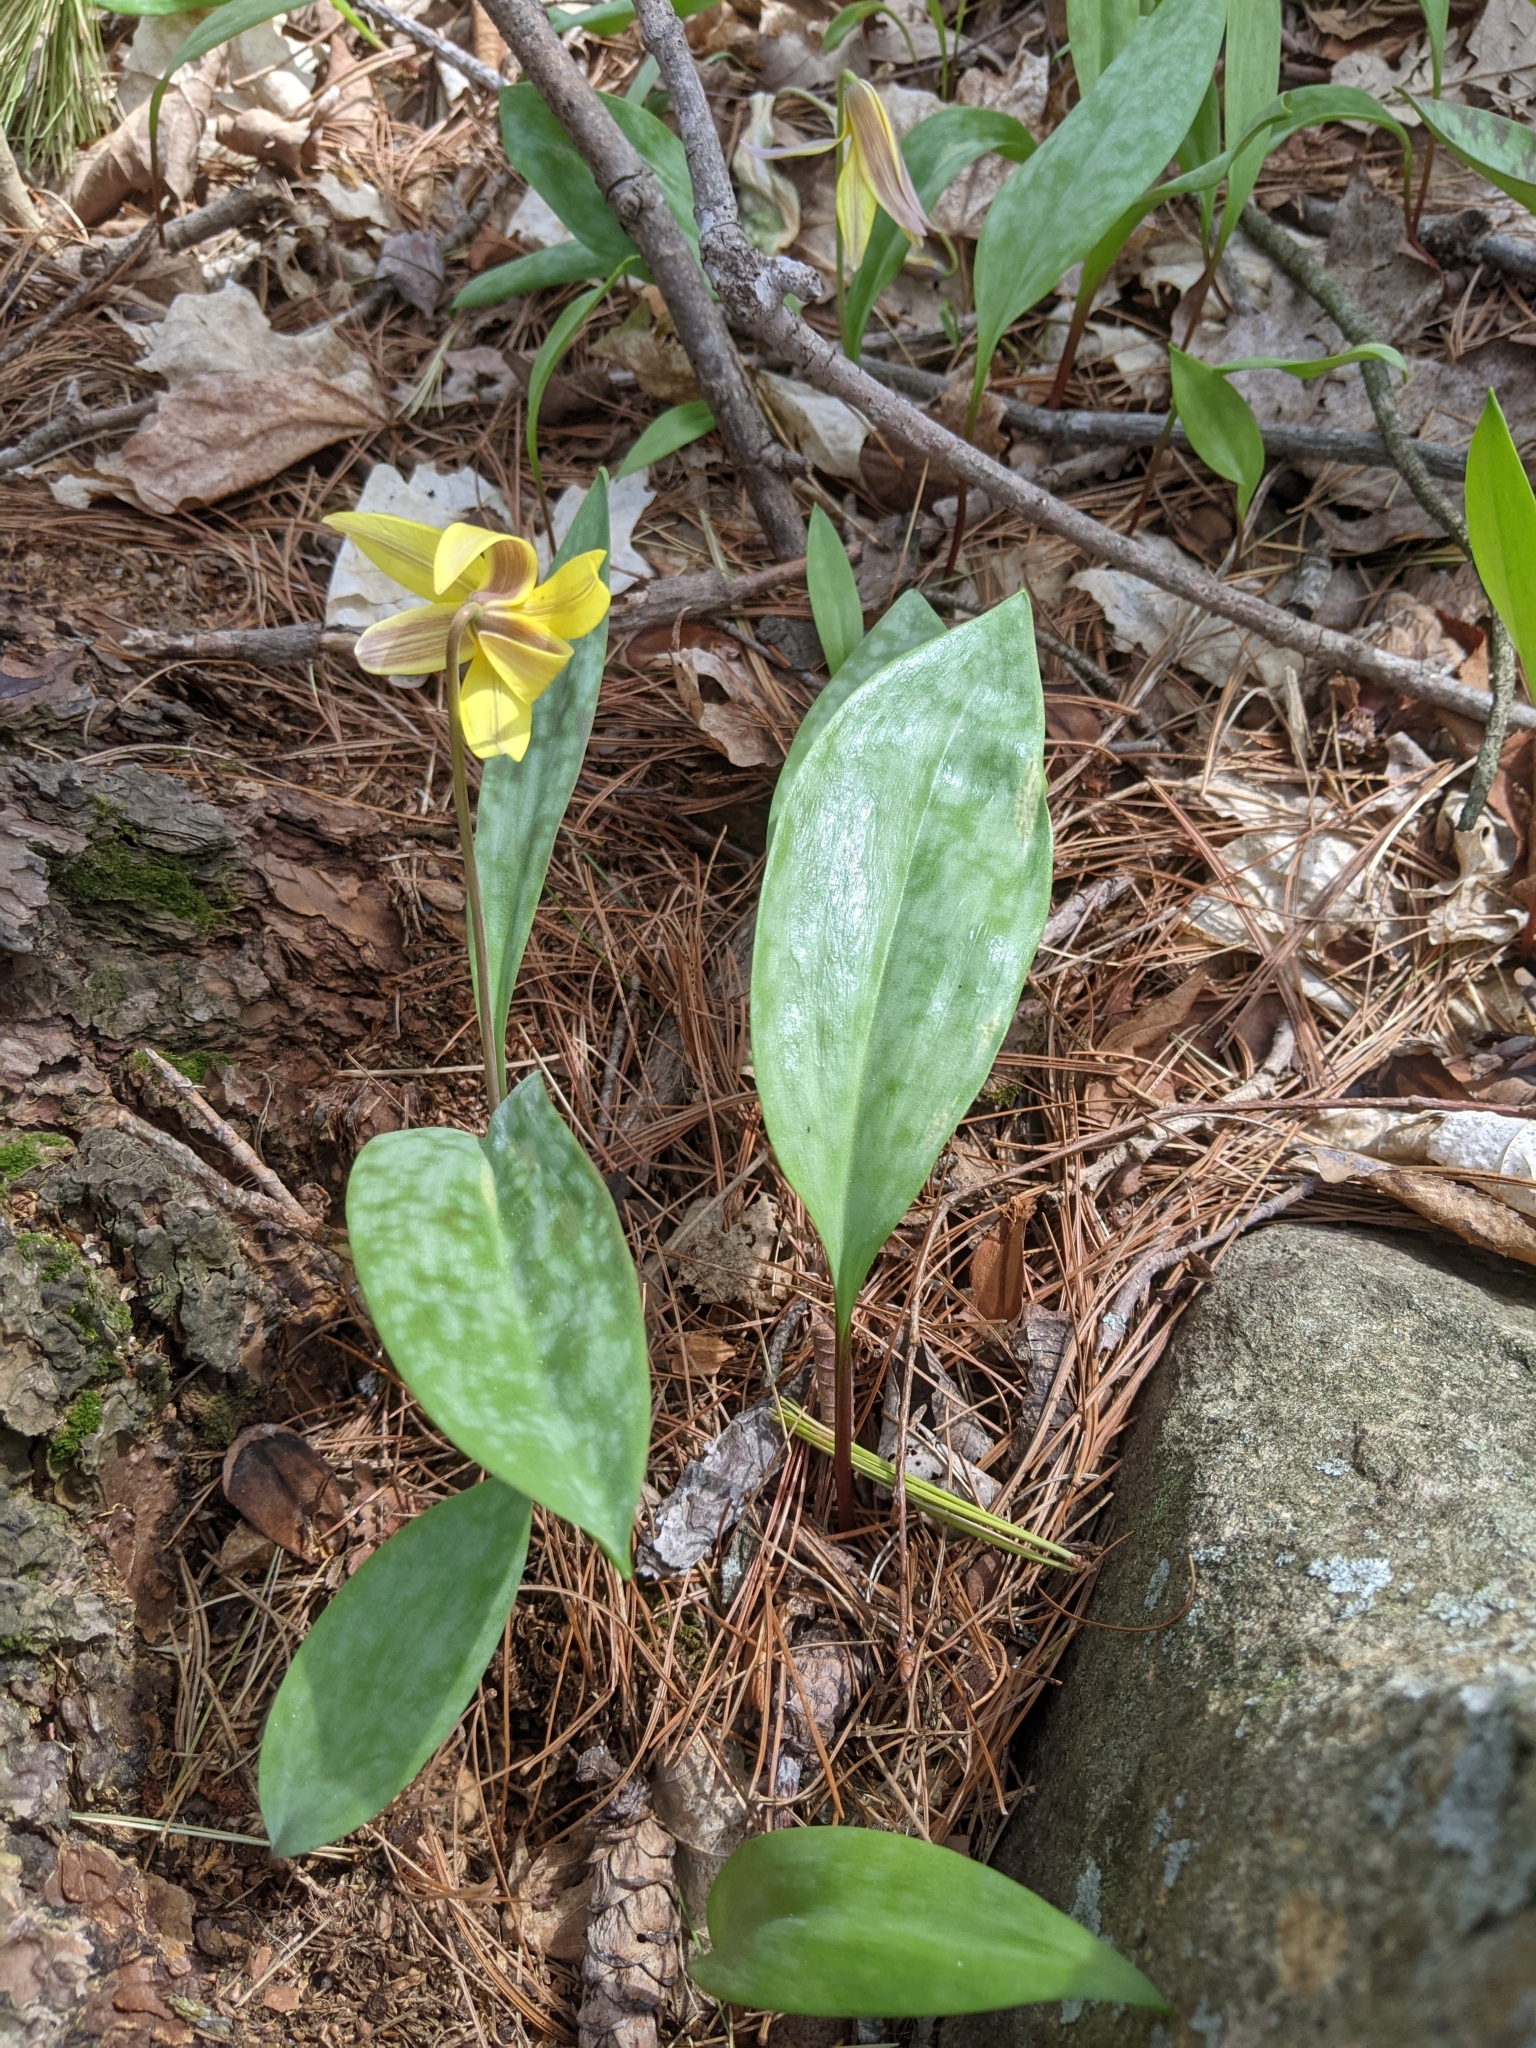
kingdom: Plantae
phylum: Tracheophyta
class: Liliopsida
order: Liliales
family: Liliaceae
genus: Erythronium
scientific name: Erythronium americanum
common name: Yellow adder's-tongue
